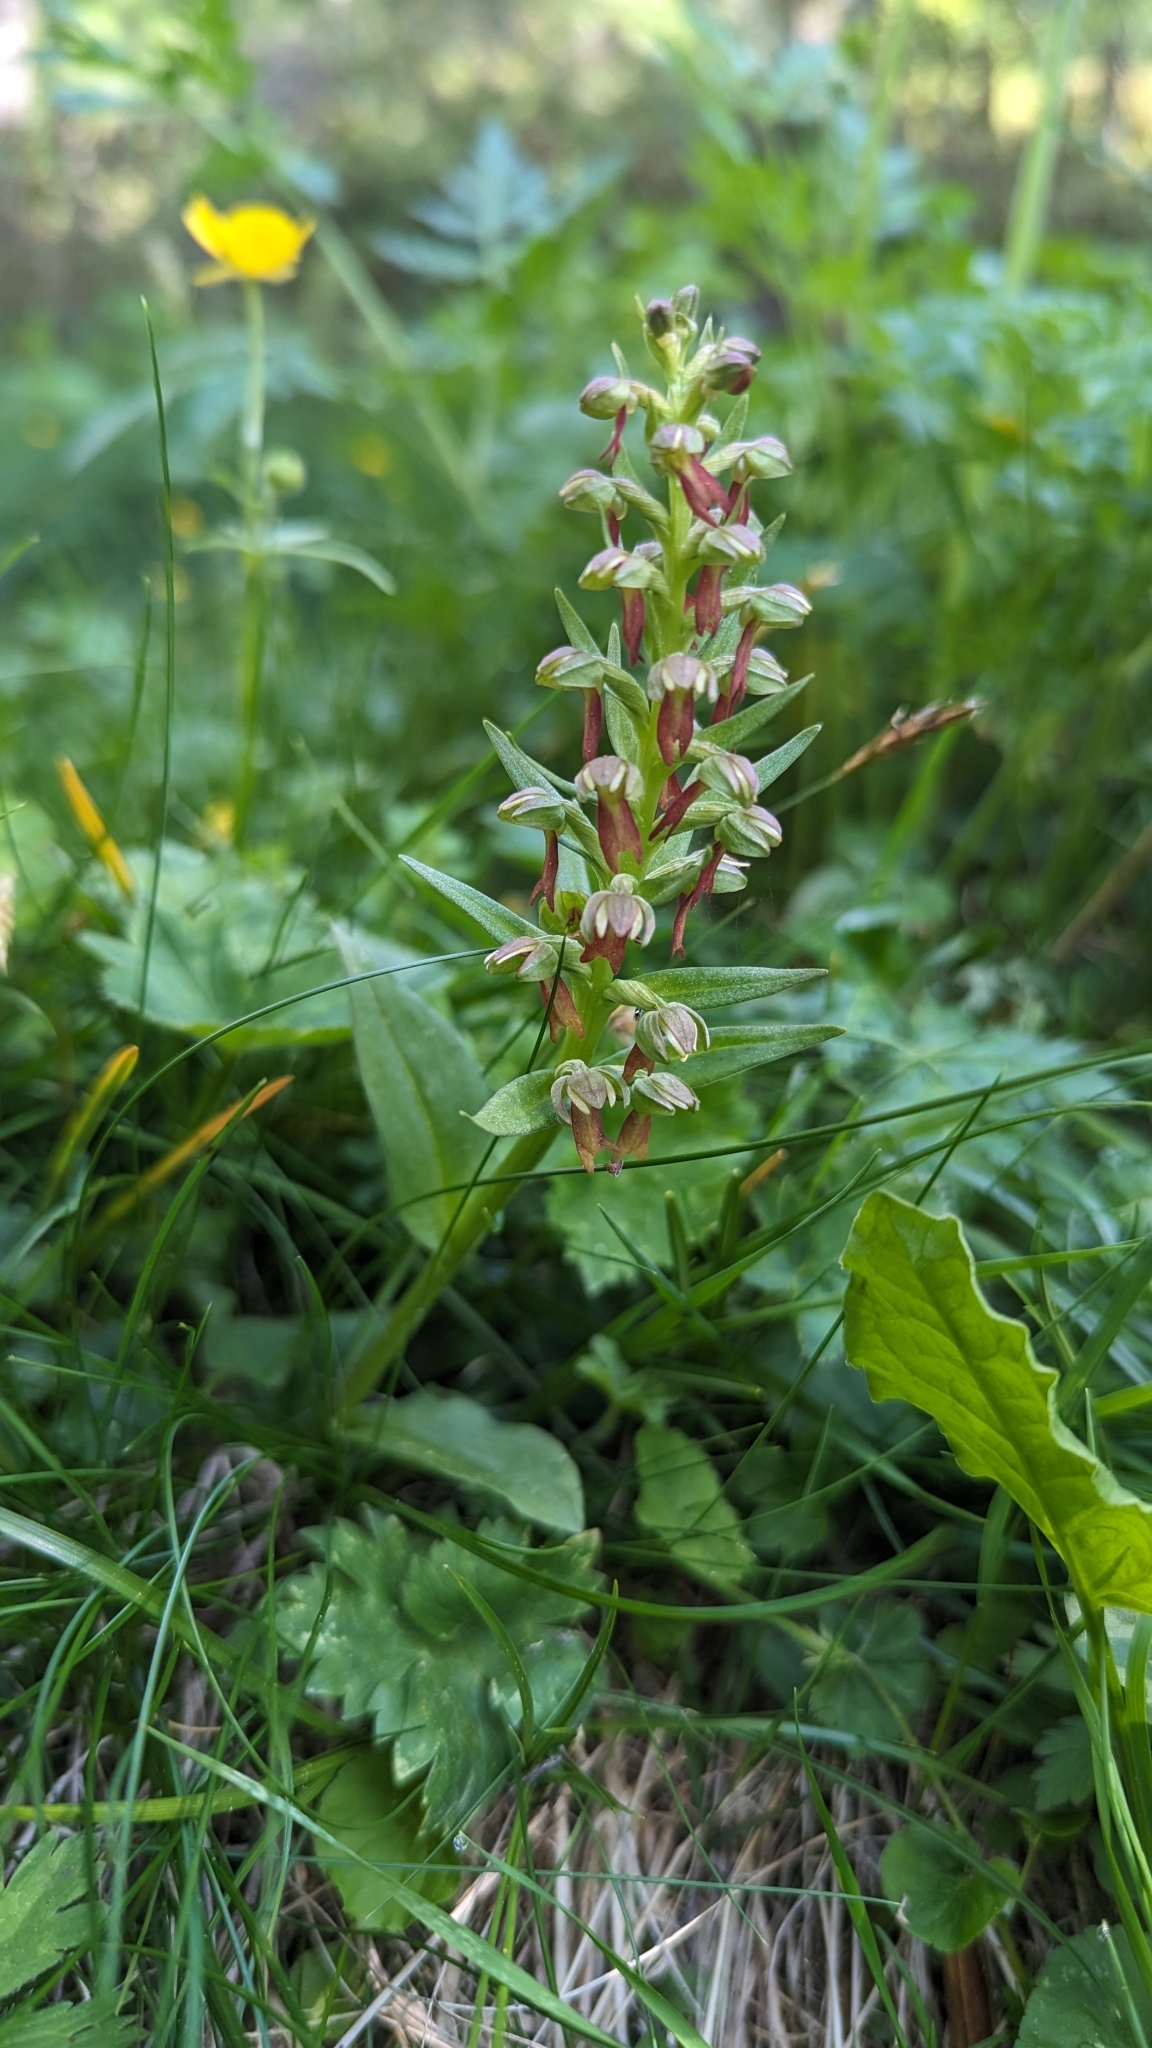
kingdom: Plantae
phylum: Tracheophyta
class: Liliopsida
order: Asparagales
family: Orchidaceae
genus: Dactylorhiza
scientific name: Dactylorhiza viridis
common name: Longbract frog orchid
